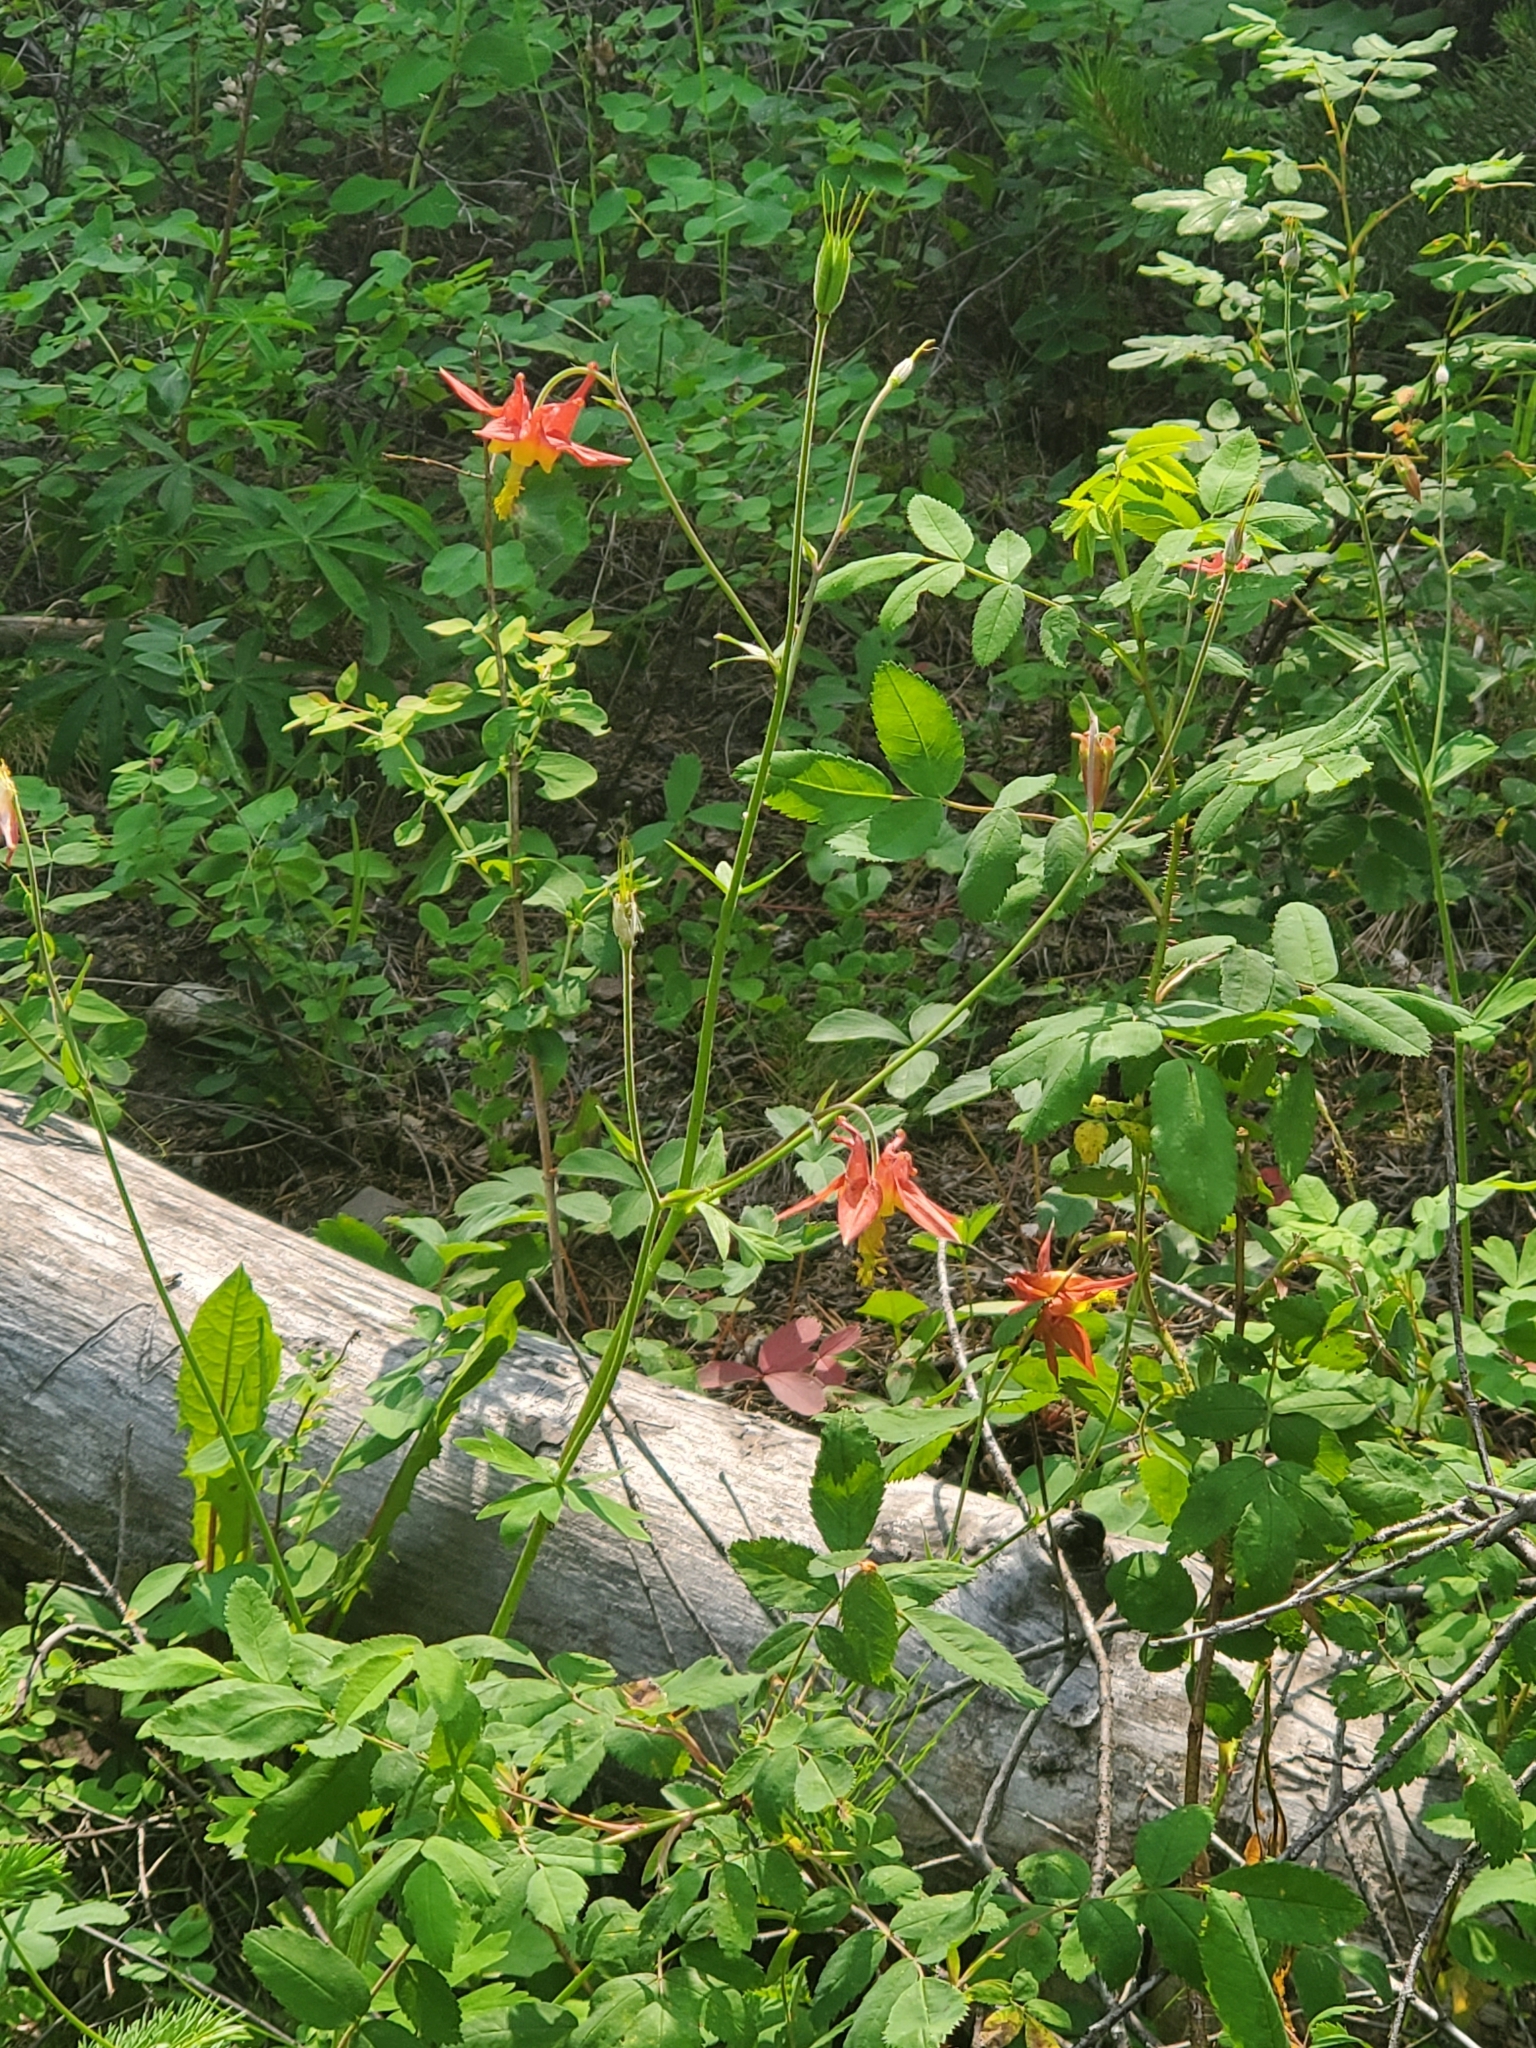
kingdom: Plantae
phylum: Tracheophyta
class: Magnoliopsida
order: Ranunculales
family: Ranunculaceae
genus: Aquilegia
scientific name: Aquilegia formosa
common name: Sitka columbine
